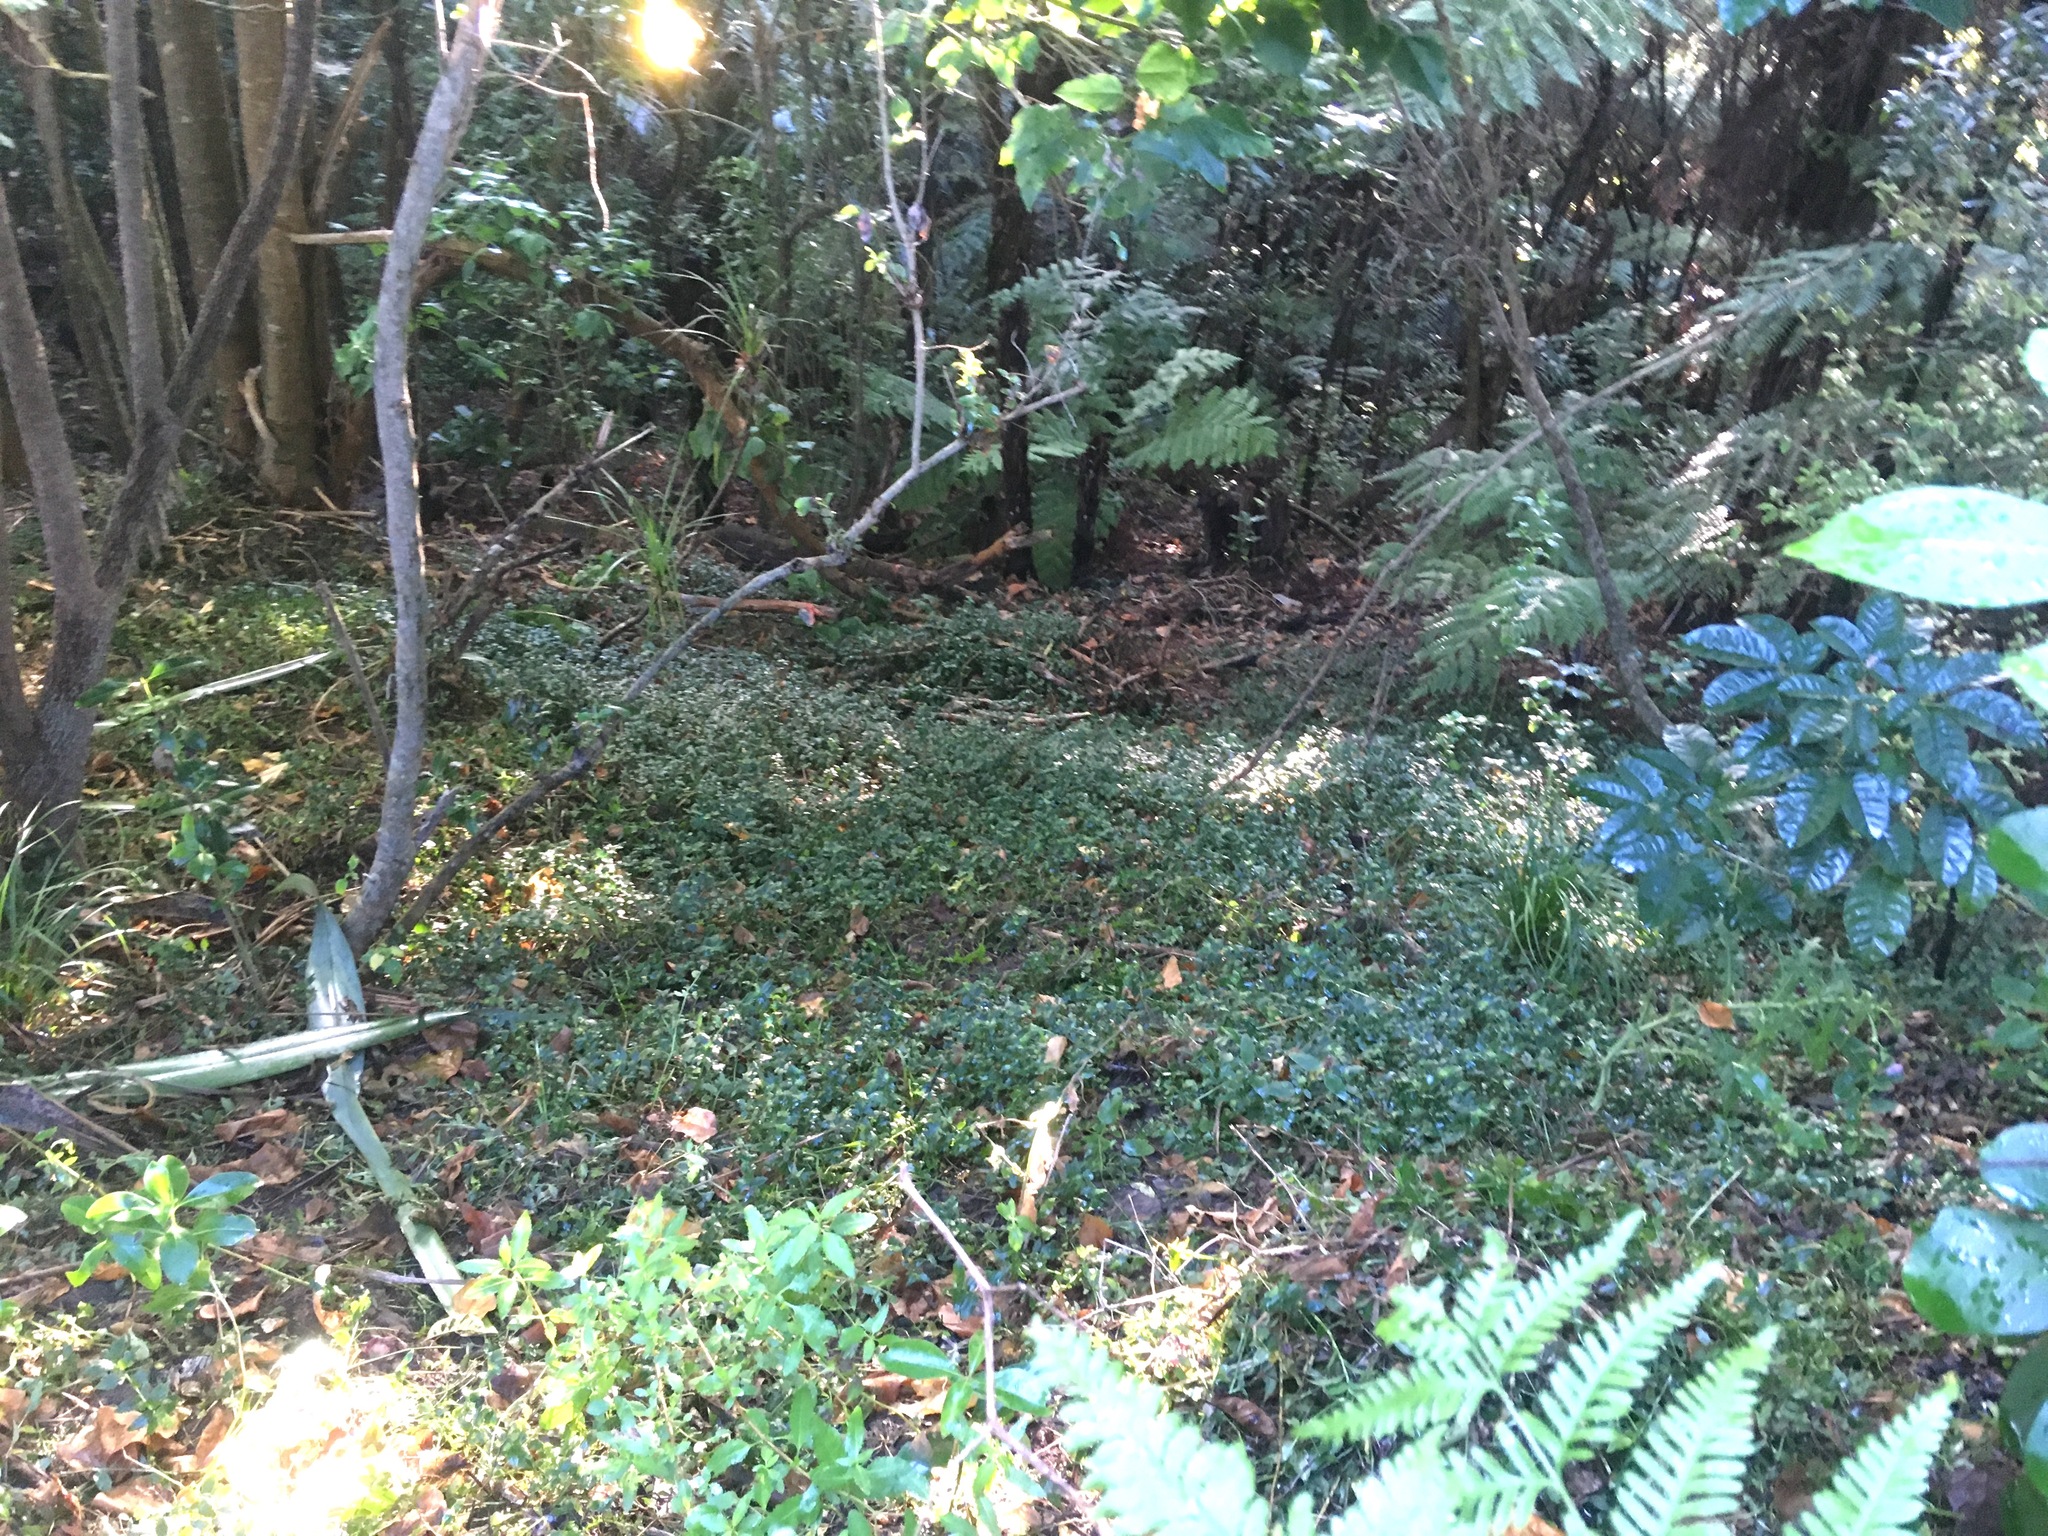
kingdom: Plantae
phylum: Tracheophyta
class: Liliopsida
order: Commelinales
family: Commelinaceae
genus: Tradescantia
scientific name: Tradescantia fluminensis
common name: Wandering-jew
